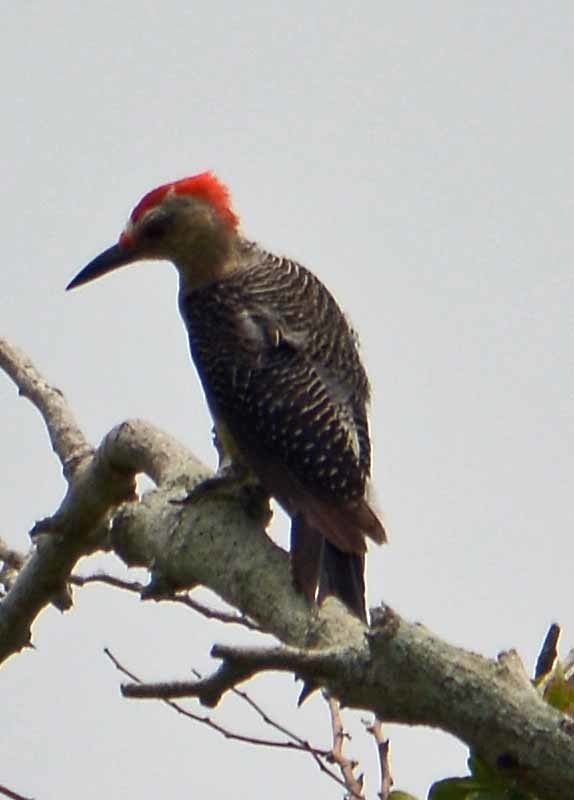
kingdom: Animalia
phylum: Chordata
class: Aves
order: Piciformes
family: Picidae
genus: Melanerpes
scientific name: Melanerpes aurifrons
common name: Golden-fronted woodpecker
